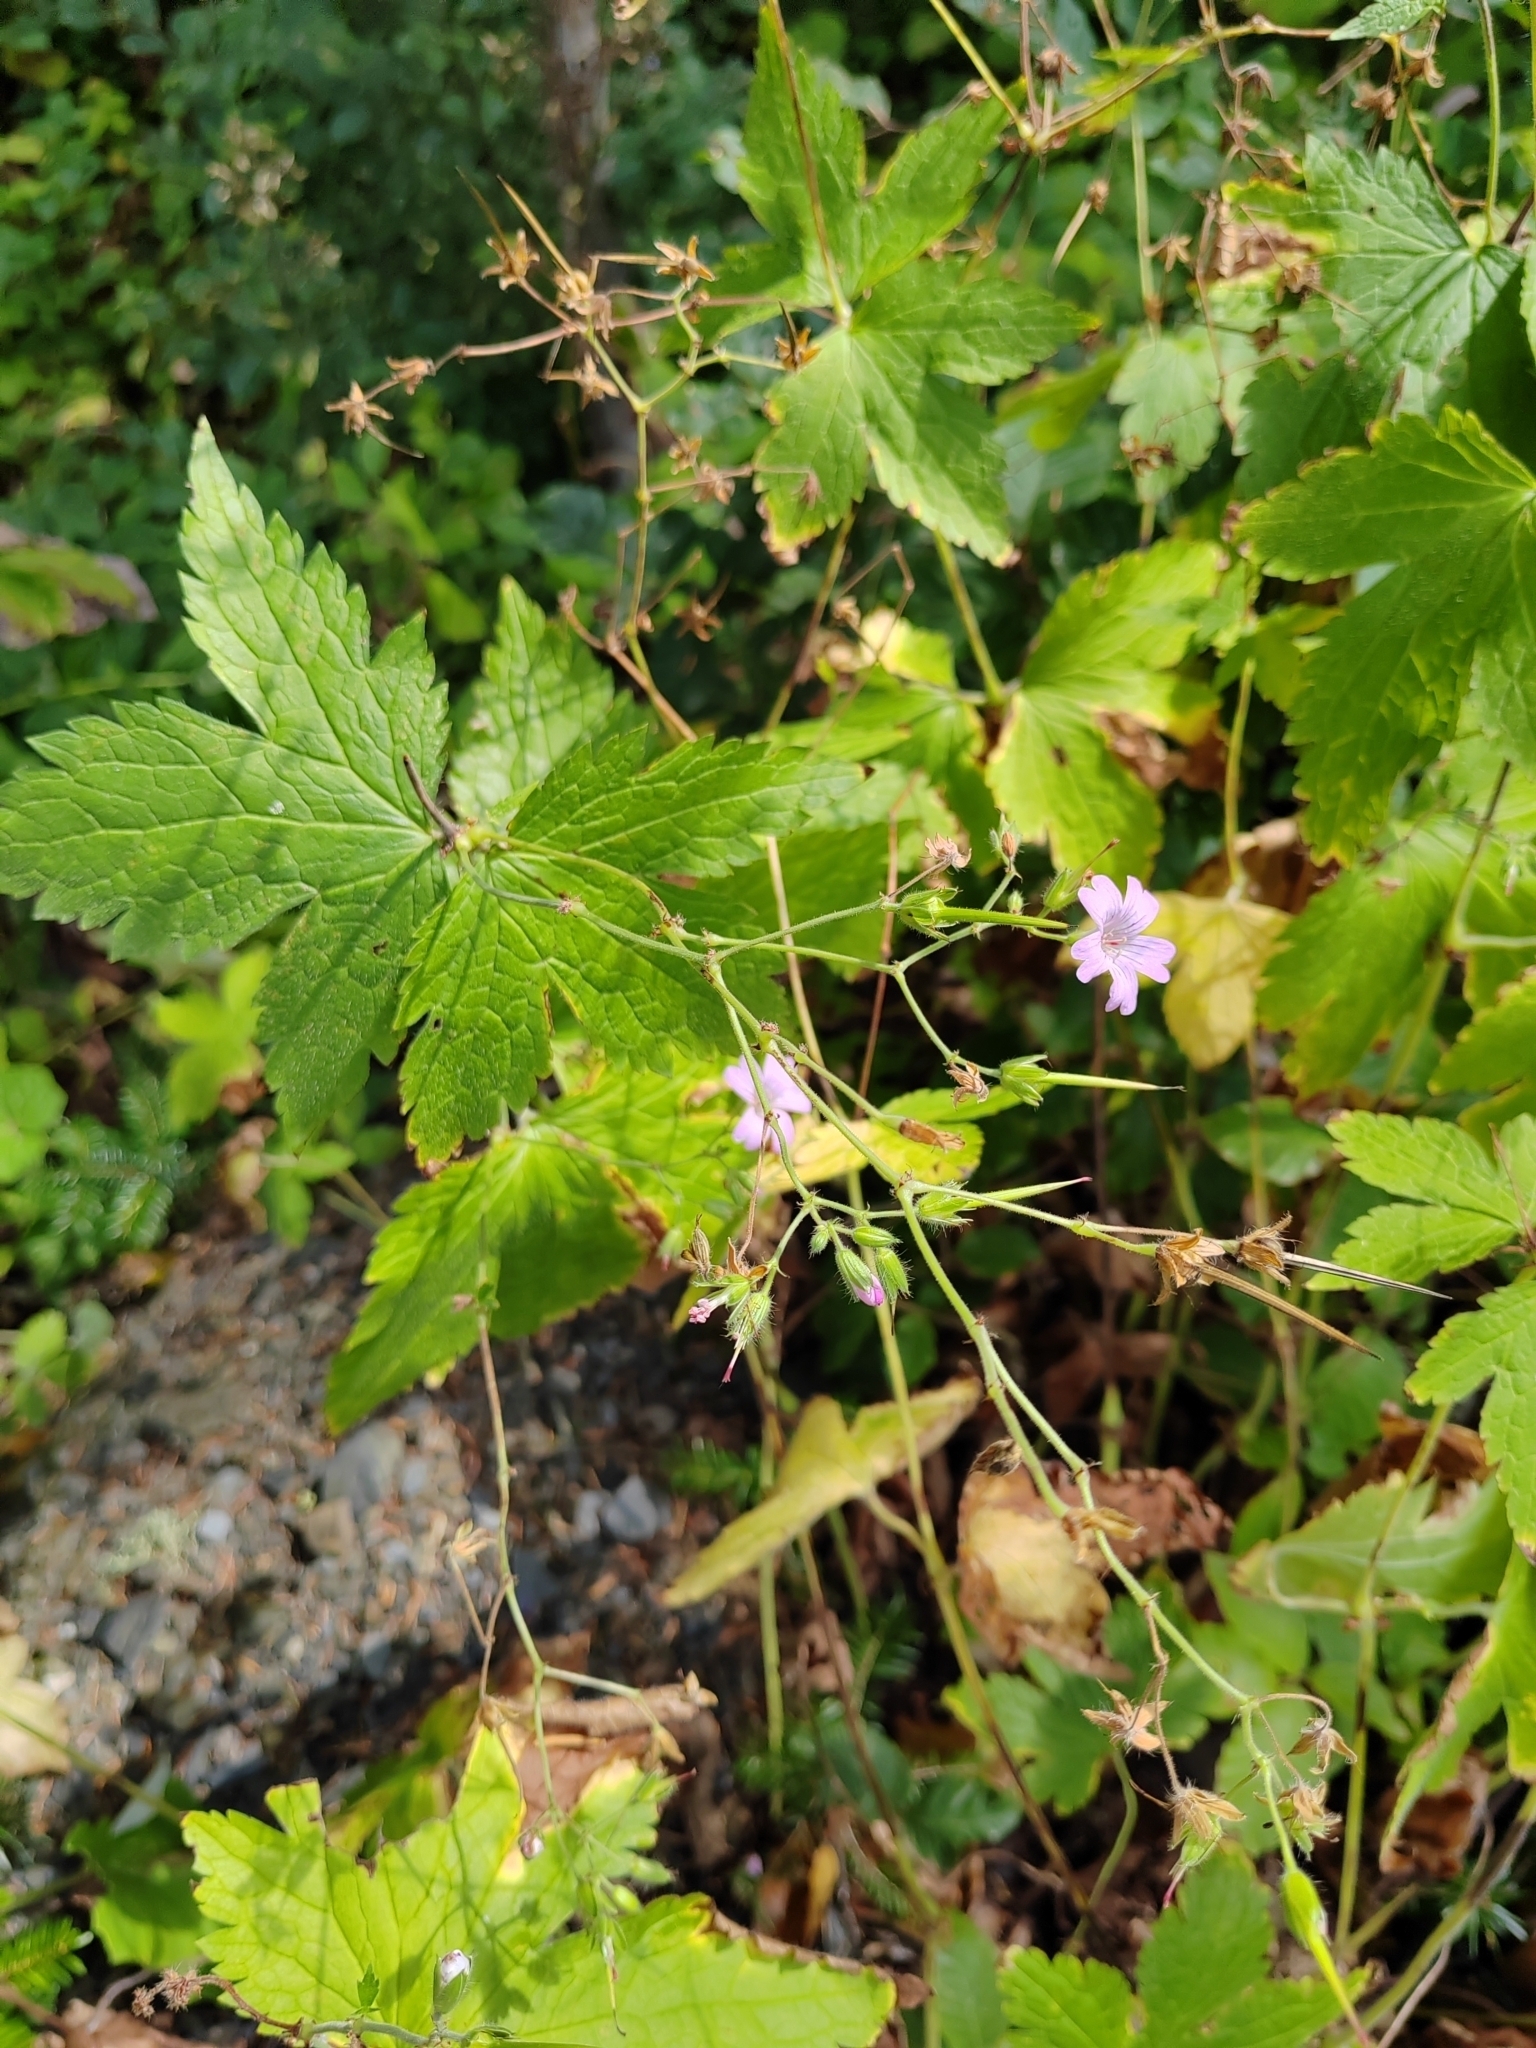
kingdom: Plantae
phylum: Tracheophyta
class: Magnoliopsida
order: Geraniales
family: Geraniaceae
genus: Geranium
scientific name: Geranium gracile
